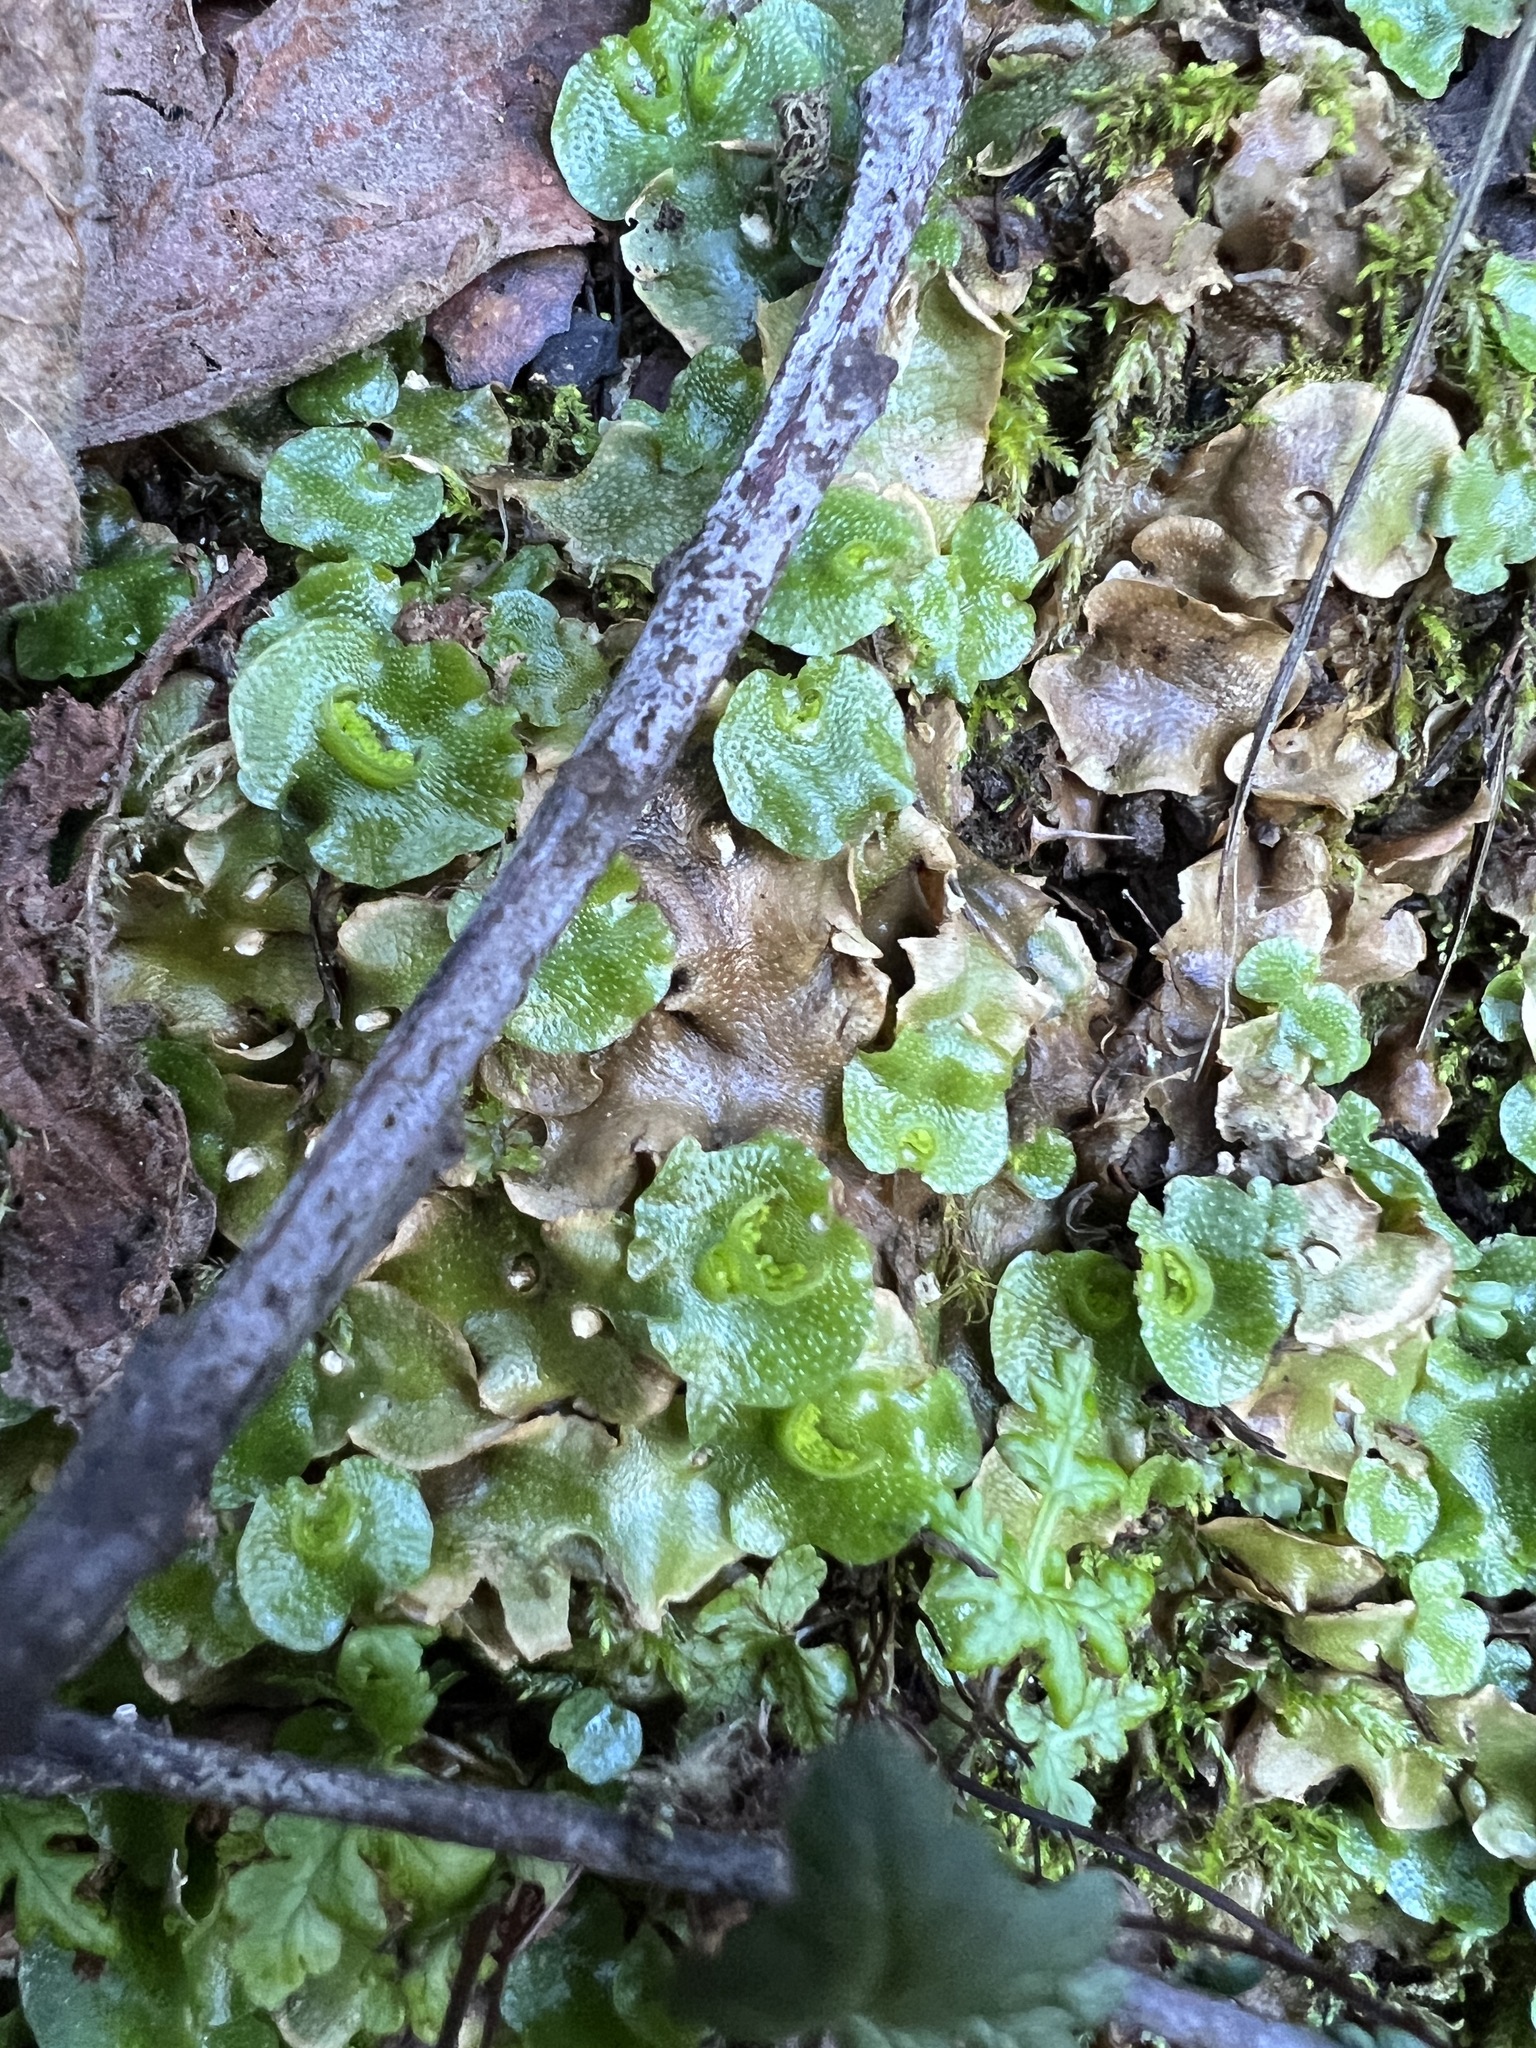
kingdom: Plantae
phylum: Marchantiophyta
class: Marchantiopsida
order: Lunulariales
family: Lunulariaceae
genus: Lunularia
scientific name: Lunularia cruciata
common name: Crescent-cup liverwort
